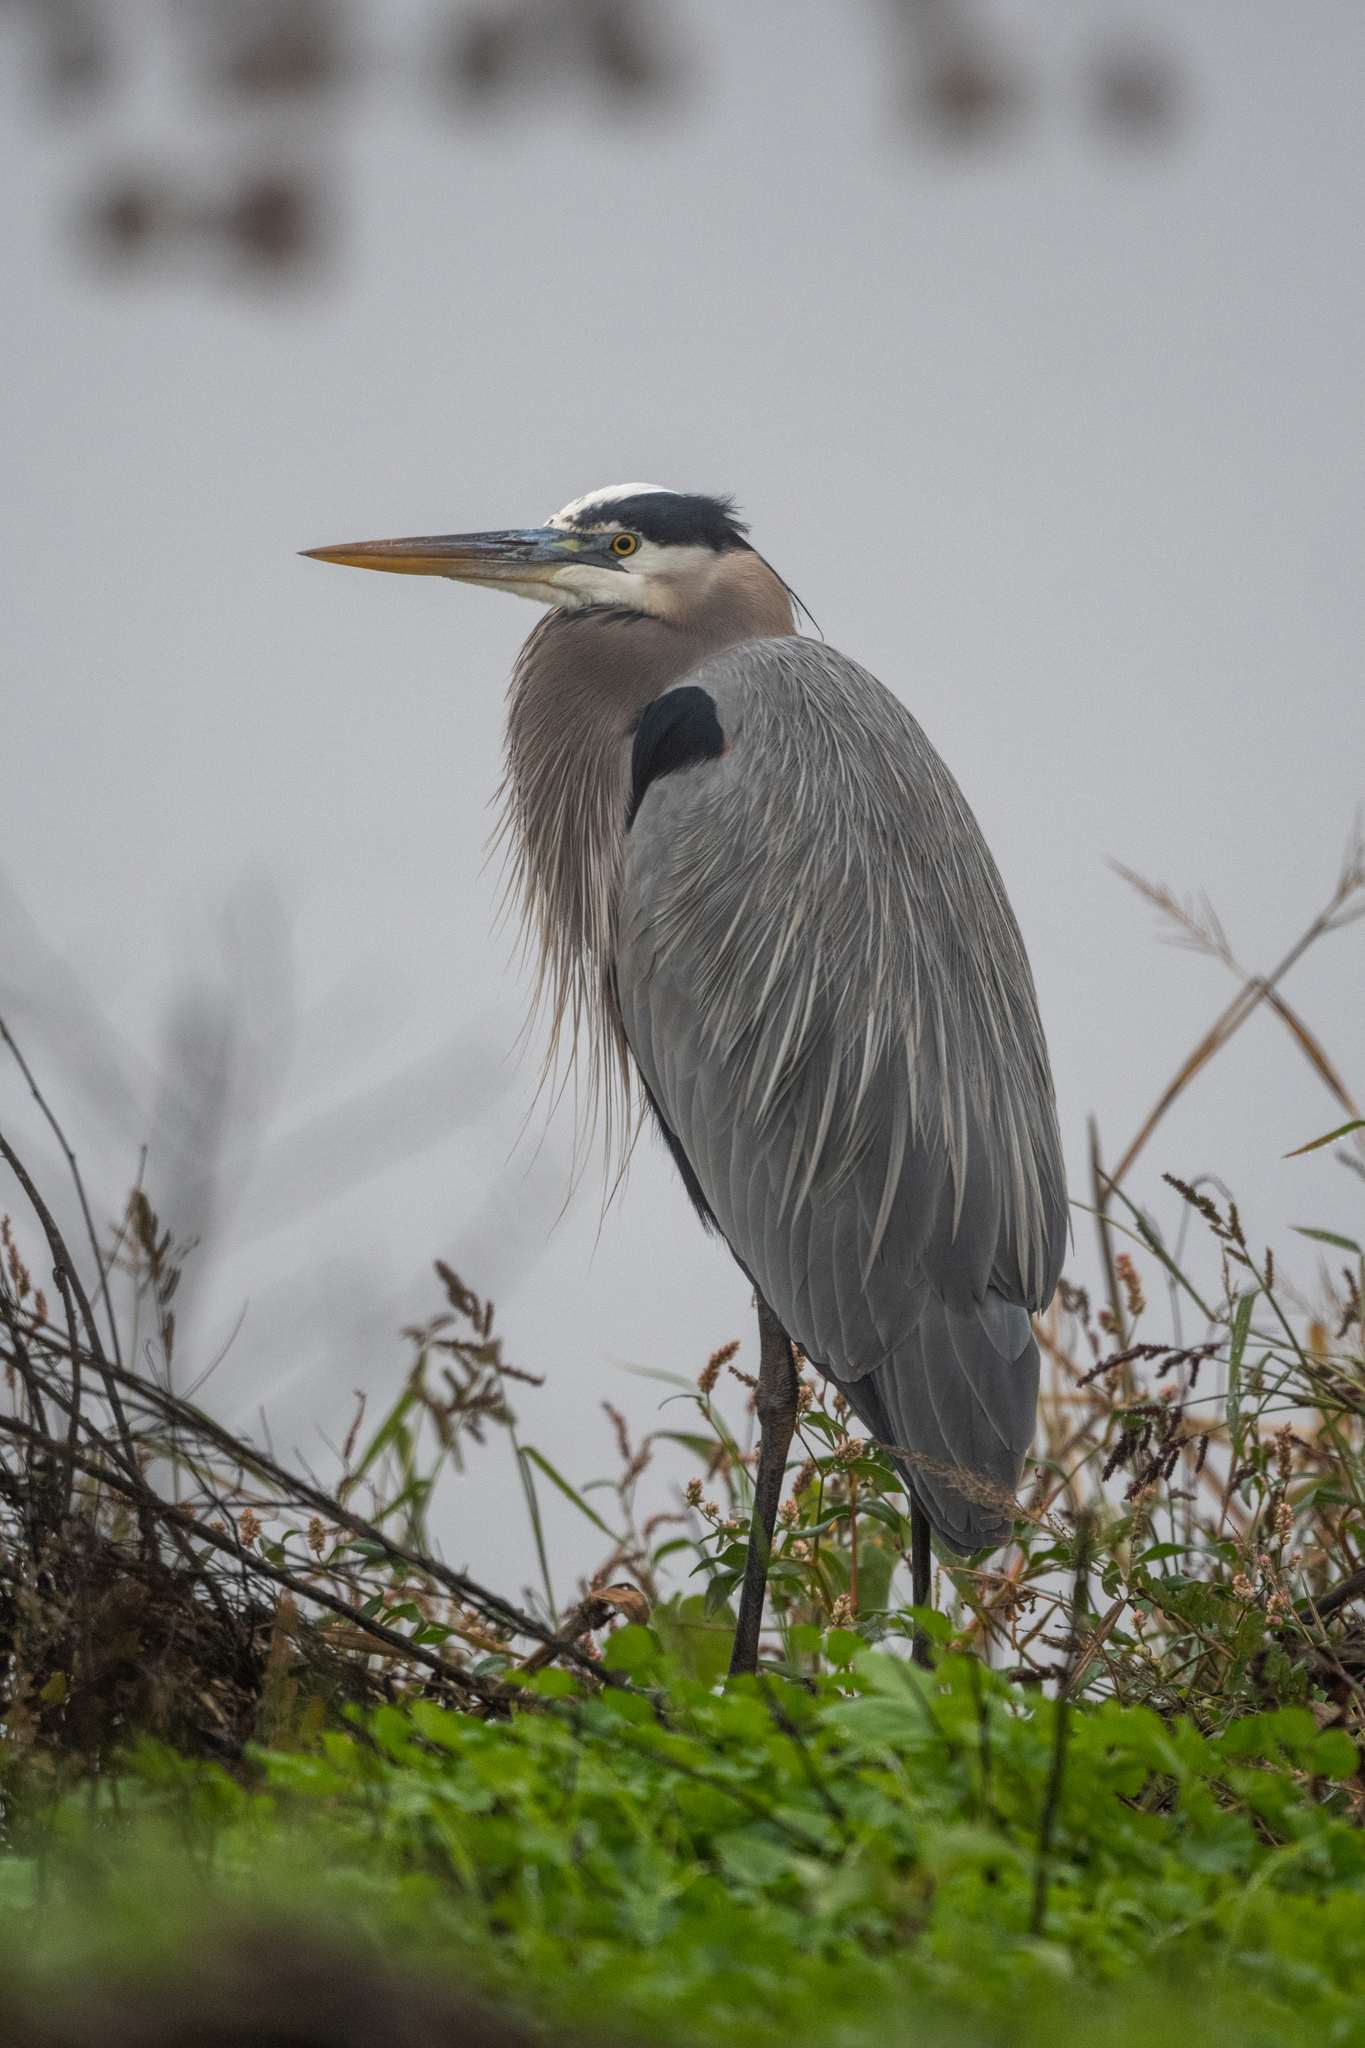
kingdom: Animalia
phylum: Chordata
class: Aves
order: Pelecaniformes
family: Ardeidae
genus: Ardea
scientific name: Ardea herodias
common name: Great blue heron
